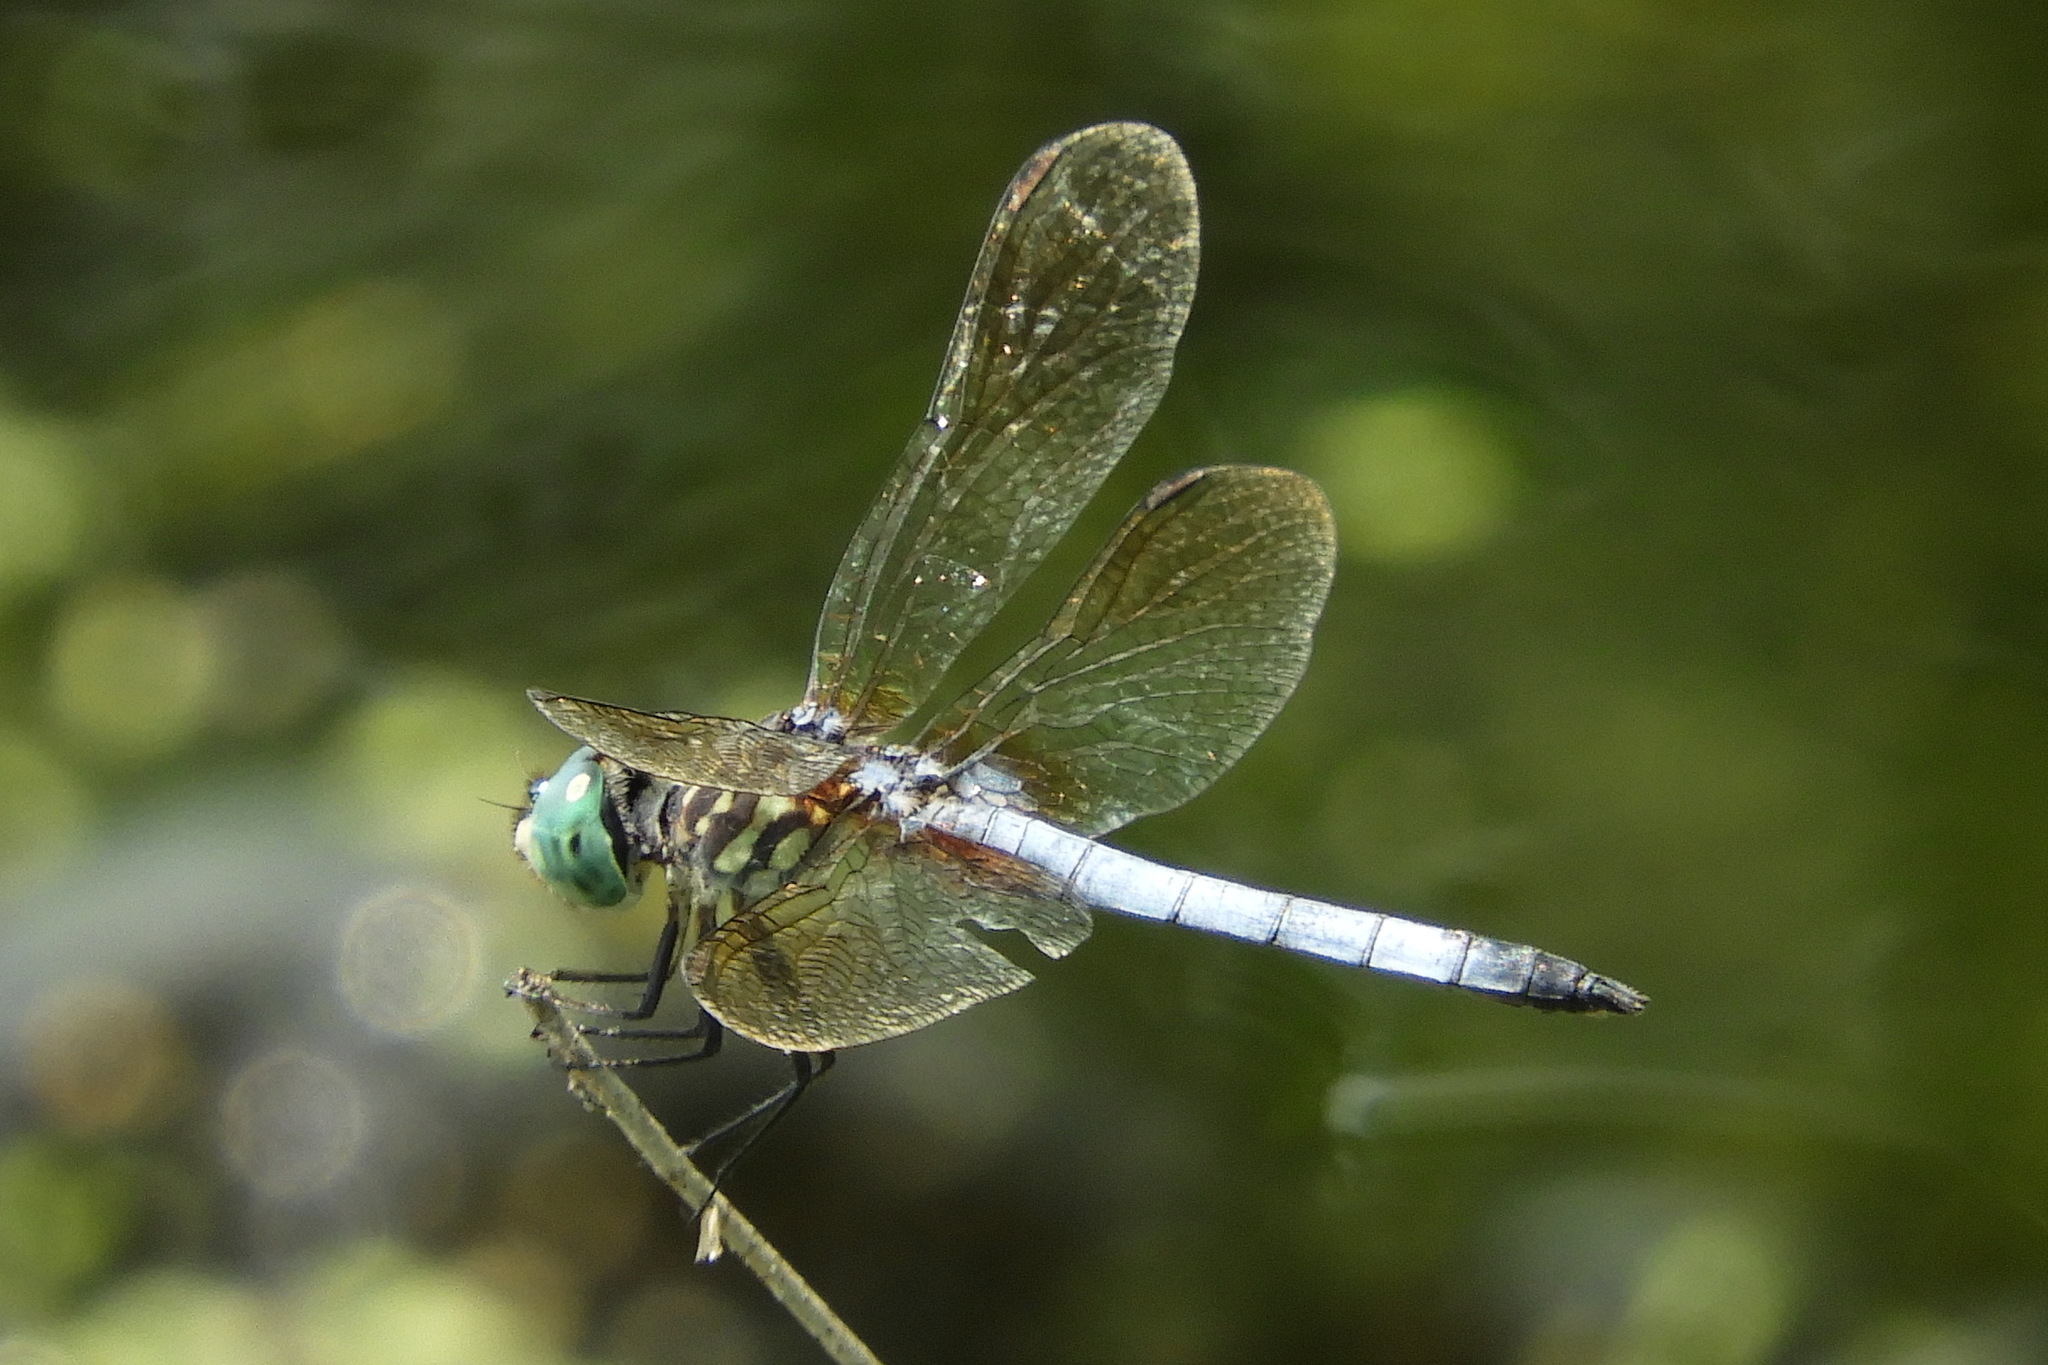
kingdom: Animalia
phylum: Arthropoda
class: Insecta
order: Odonata
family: Libellulidae
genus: Pachydiplax
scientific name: Pachydiplax longipennis
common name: Blue dasher
